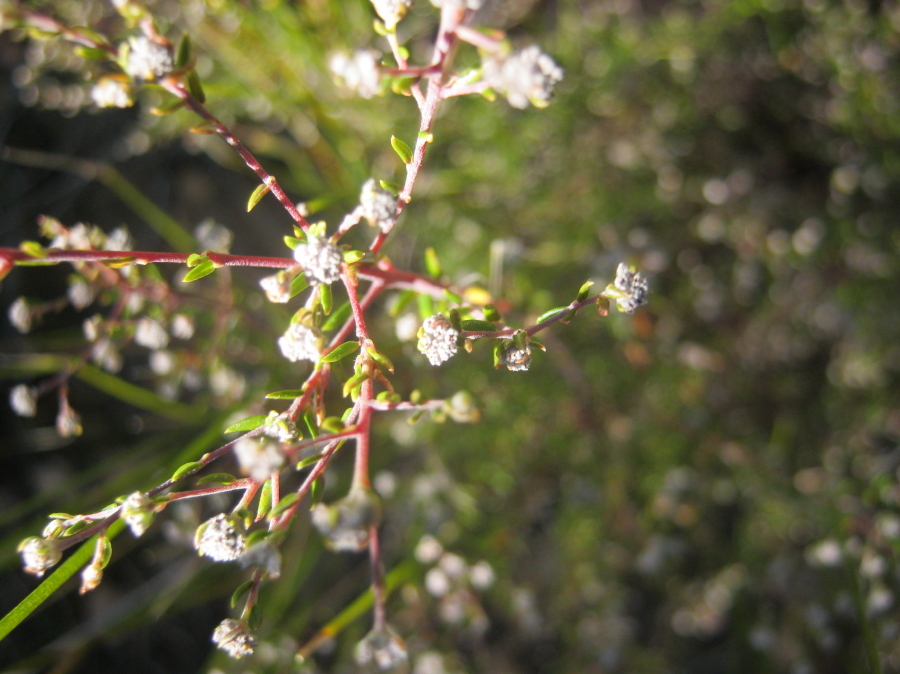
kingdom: Plantae
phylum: Tracheophyta
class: Magnoliopsida
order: Rosales
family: Rhamnaceae
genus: Phylica
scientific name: Phylica brachycephala
